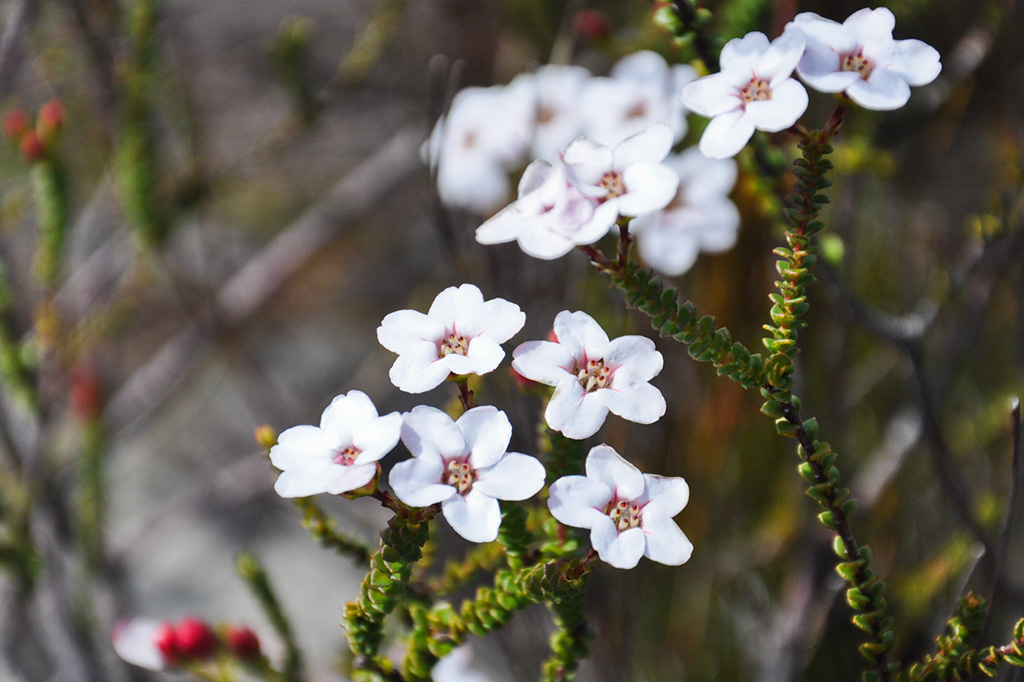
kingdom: Plantae
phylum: Tracheophyta
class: Magnoliopsida
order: Sapindales
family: Rutaceae
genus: Adenandra
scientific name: Adenandra brachyphylla
